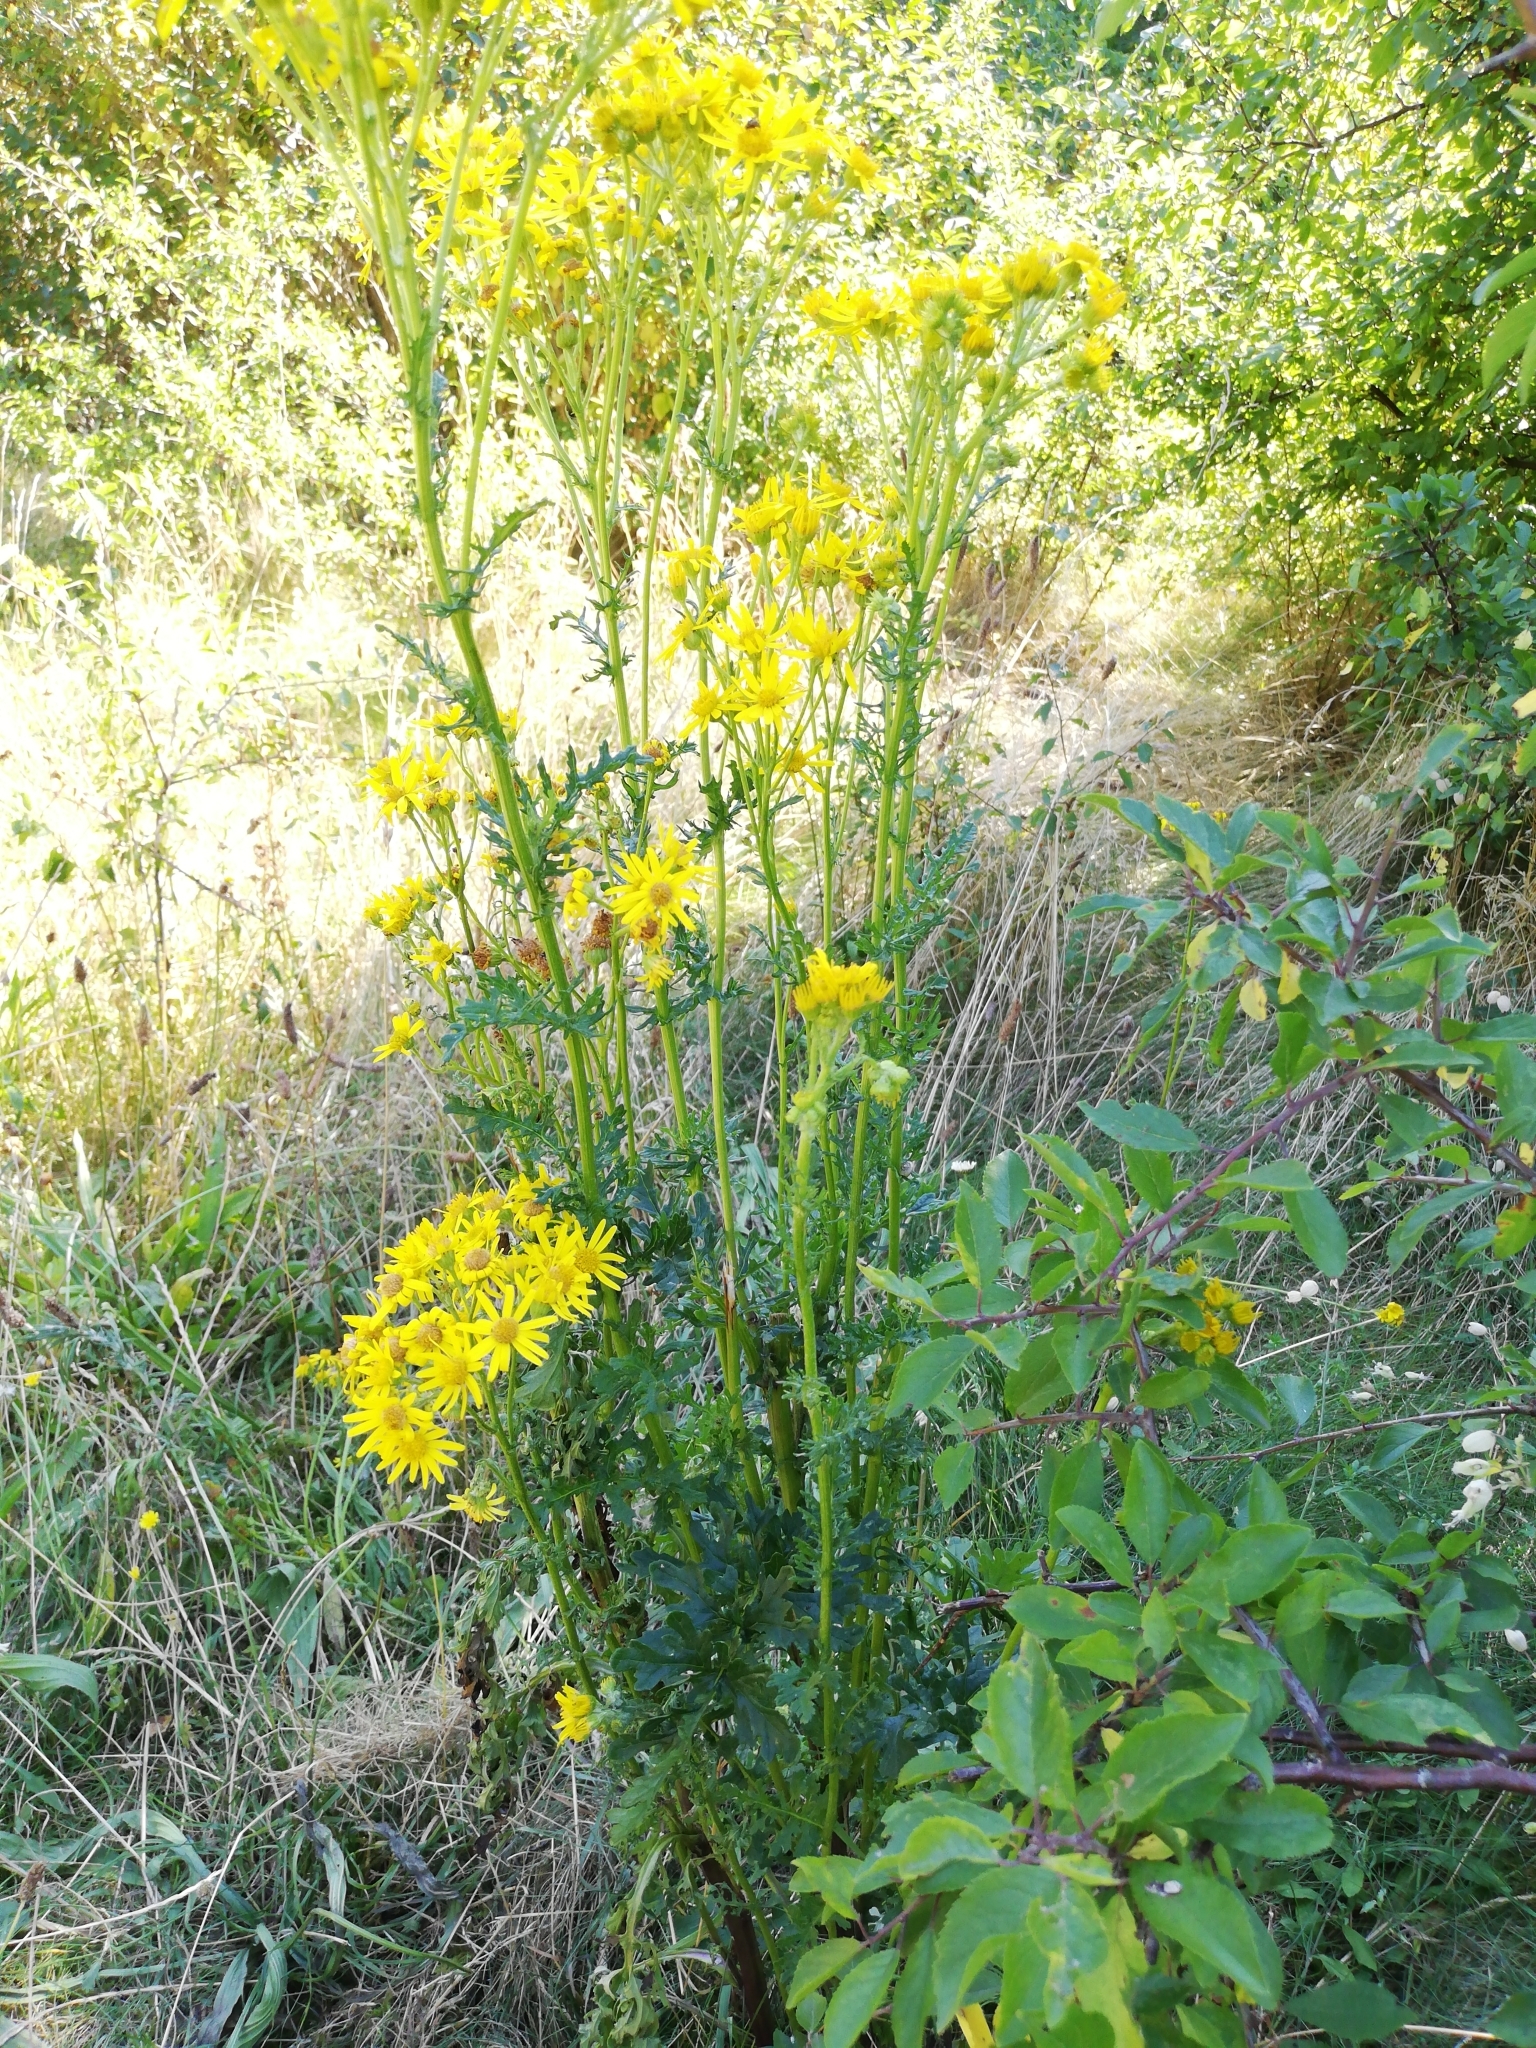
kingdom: Plantae
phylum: Tracheophyta
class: Magnoliopsida
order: Asterales
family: Asteraceae
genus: Jacobaea
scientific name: Jacobaea vulgaris
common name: Stinking willie
